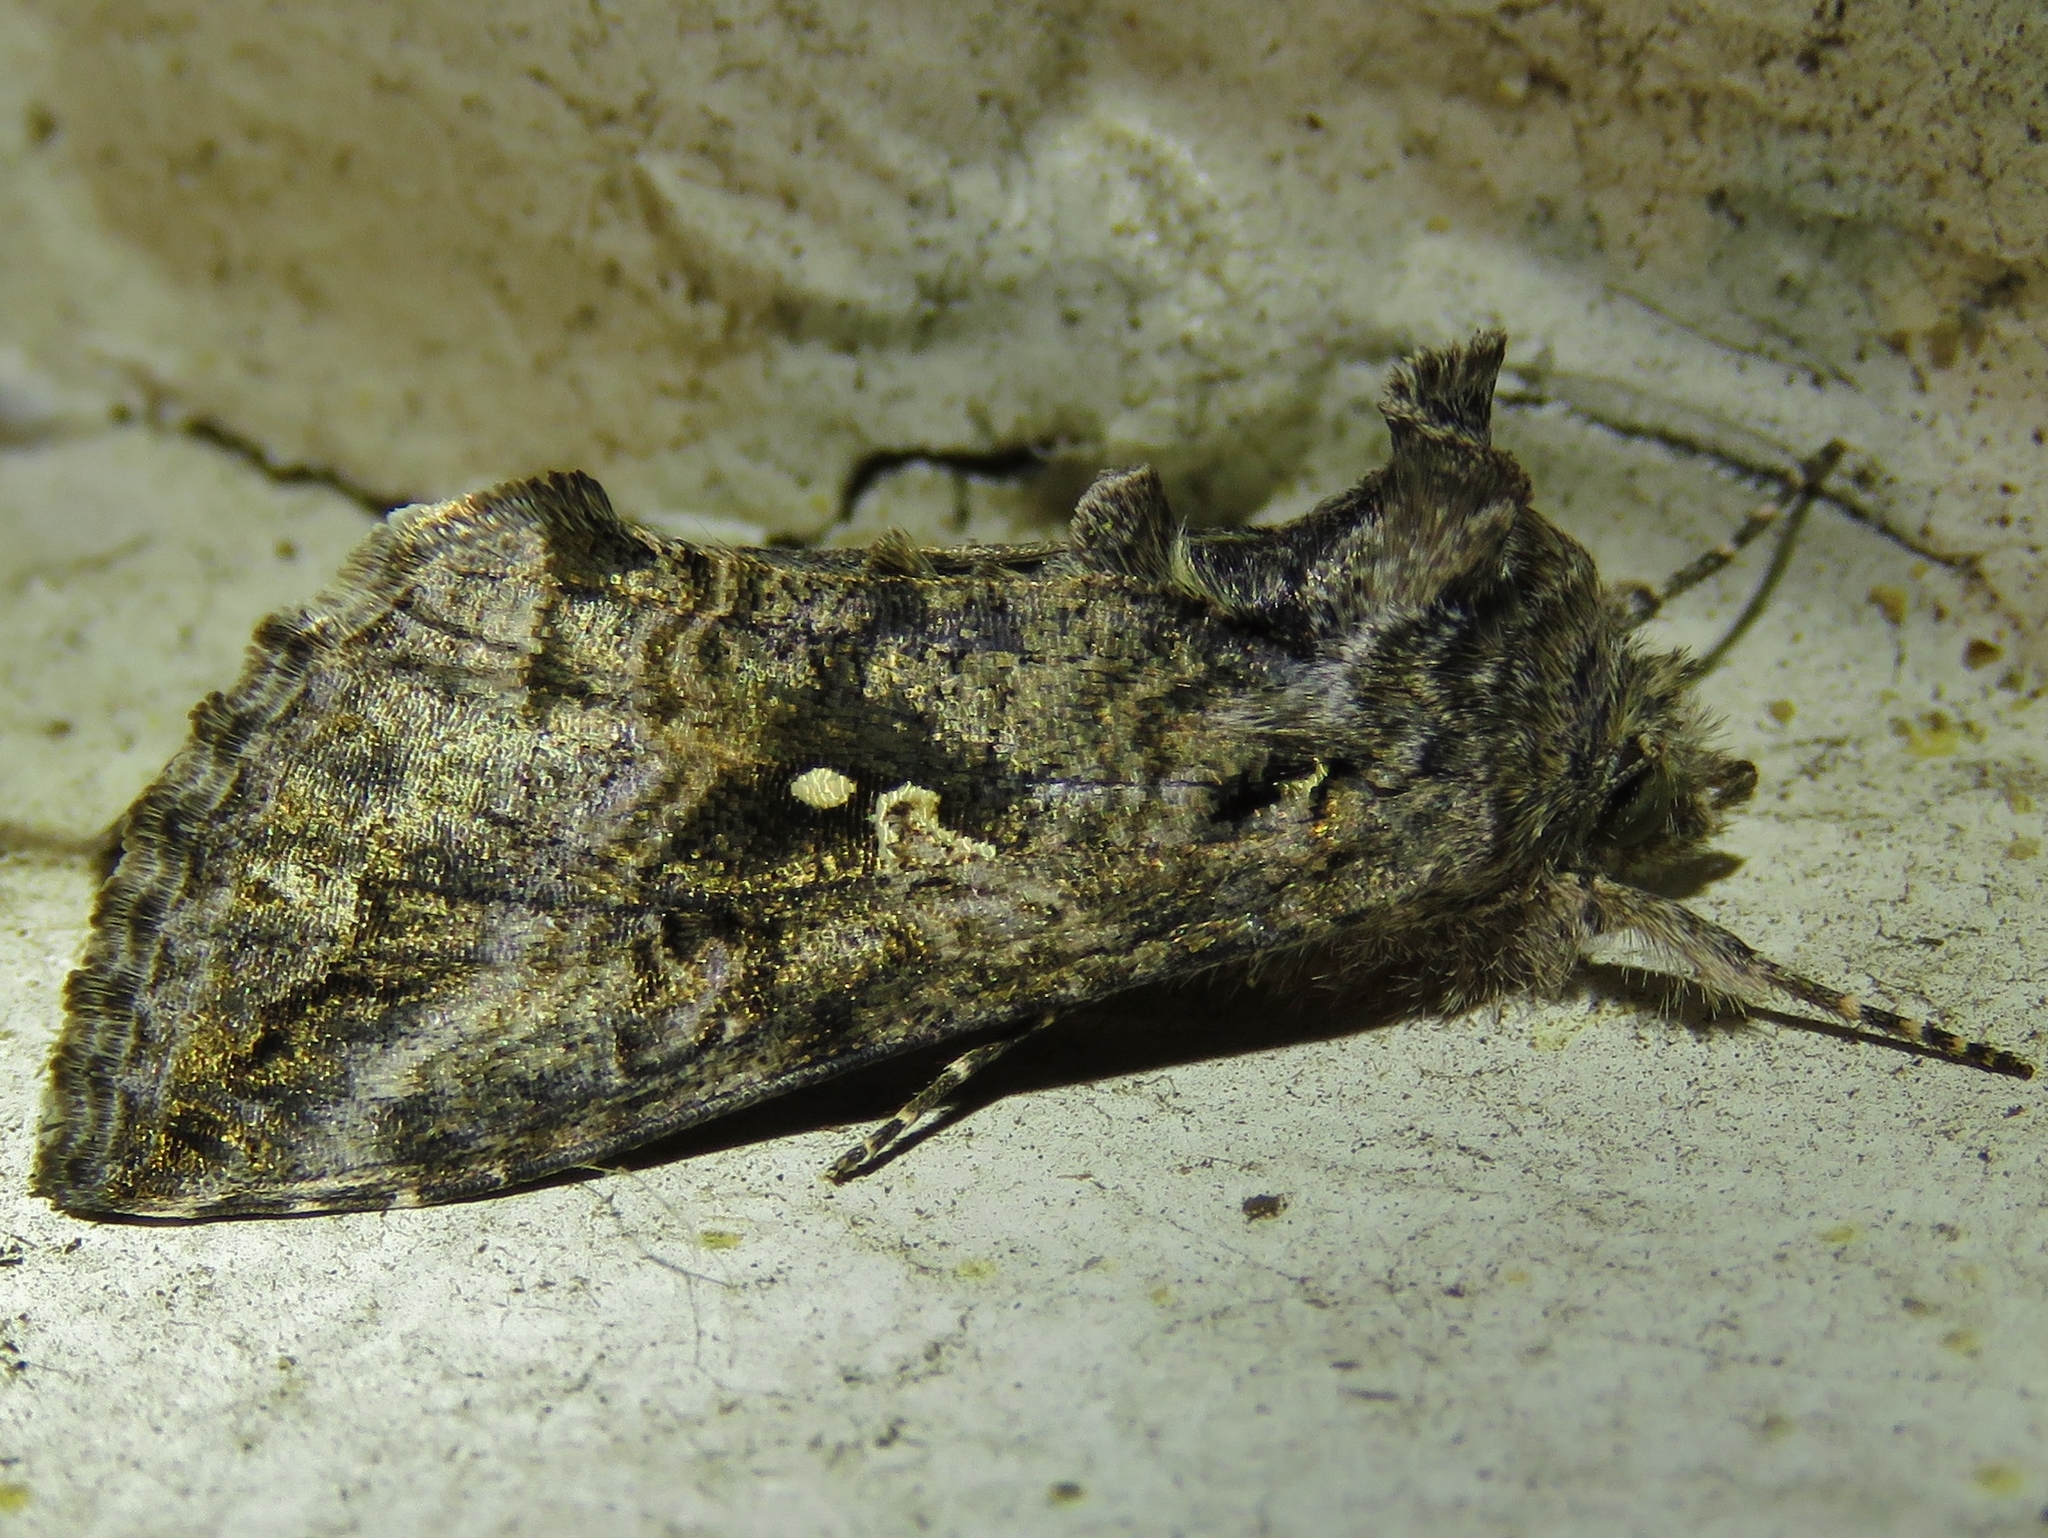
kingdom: Animalia
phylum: Arthropoda
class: Insecta
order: Lepidoptera
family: Noctuidae
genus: Rachiplusia
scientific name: Rachiplusia ou
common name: Gray looper moth
